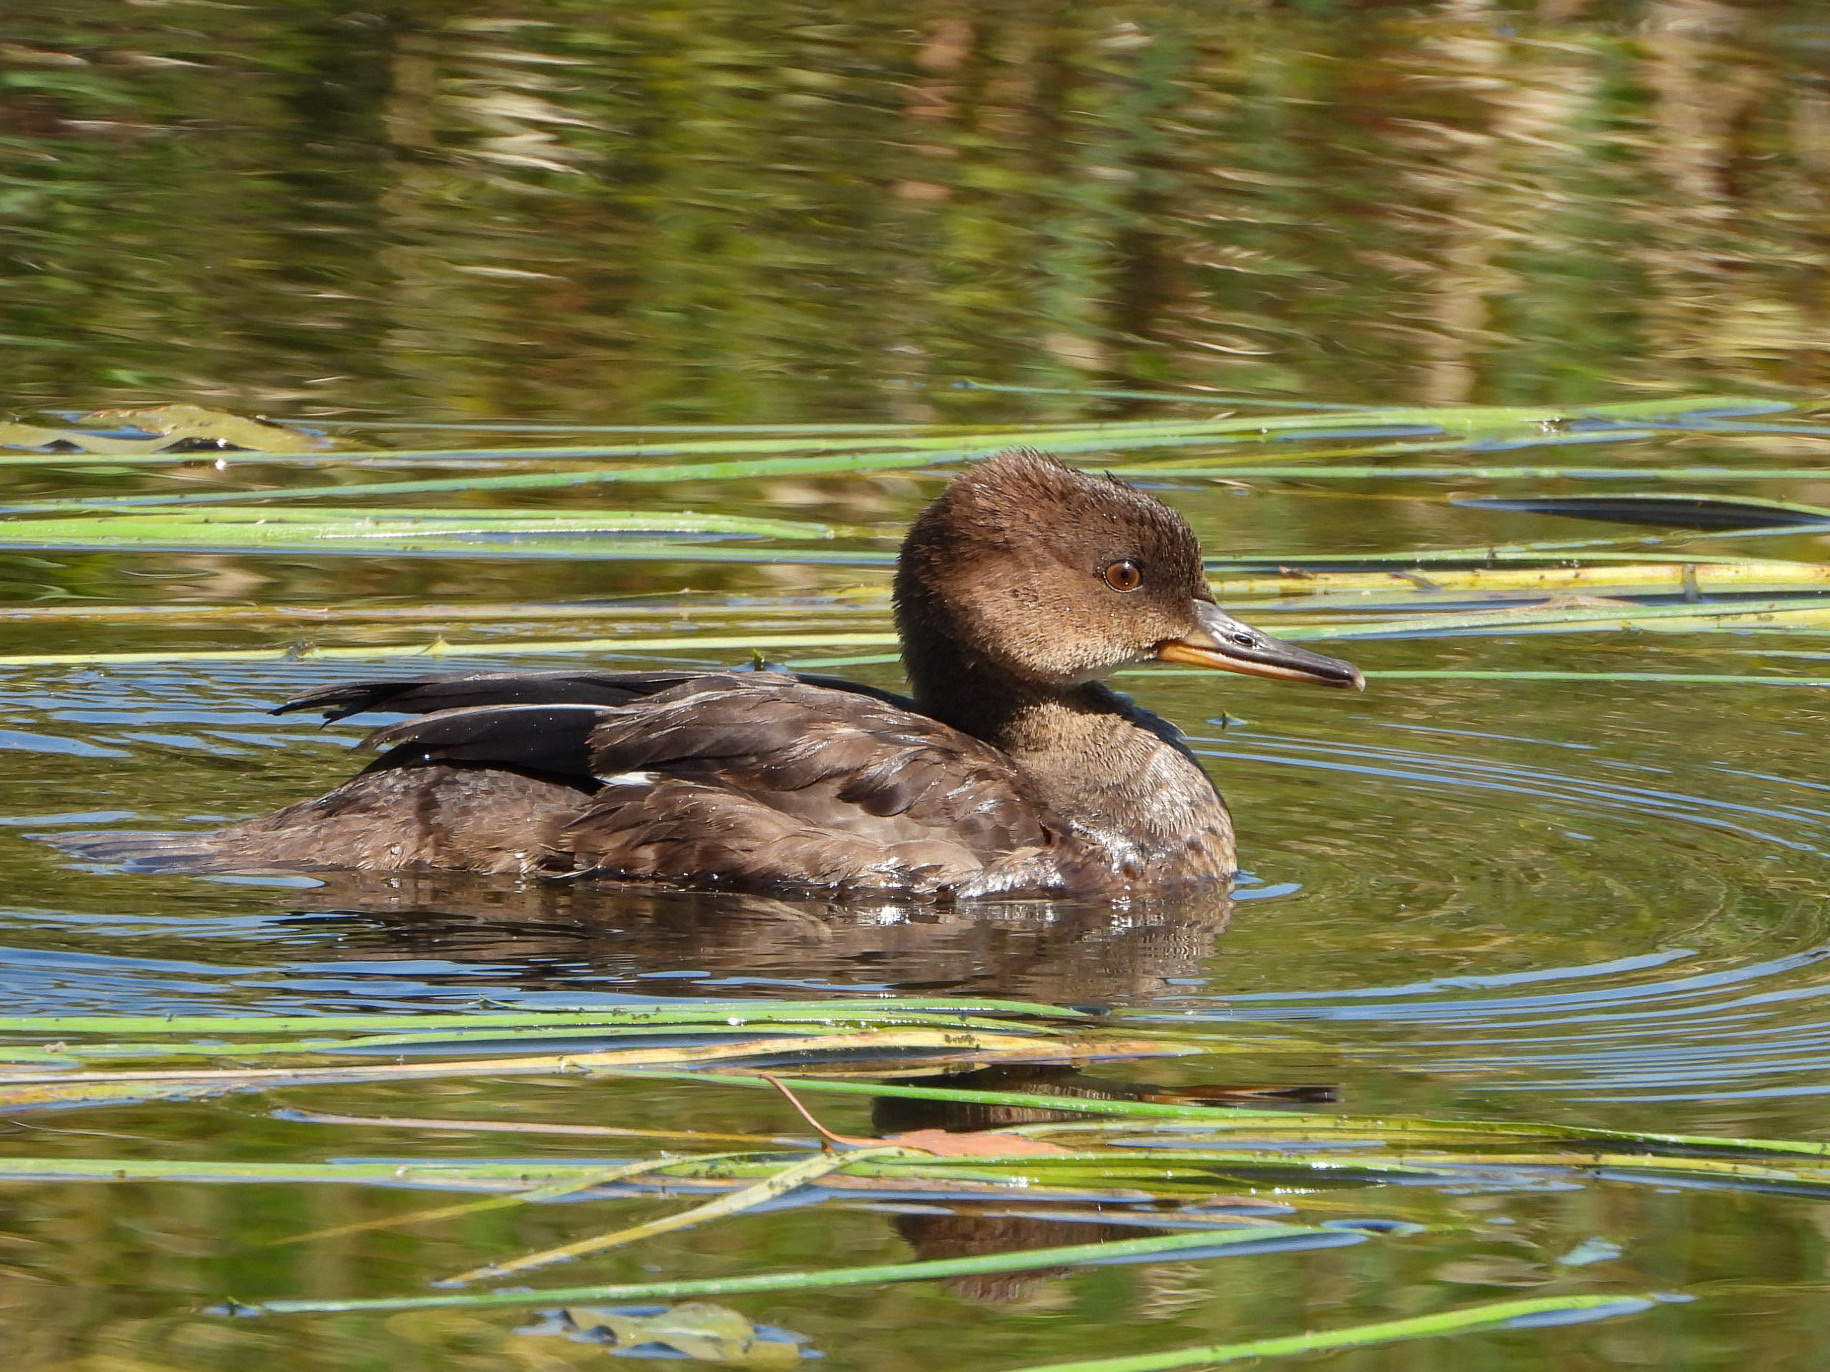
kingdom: Animalia
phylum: Chordata
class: Aves
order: Anseriformes
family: Anatidae
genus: Lophodytes
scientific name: Lophodytes cucullatus
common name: Hooded merganser
